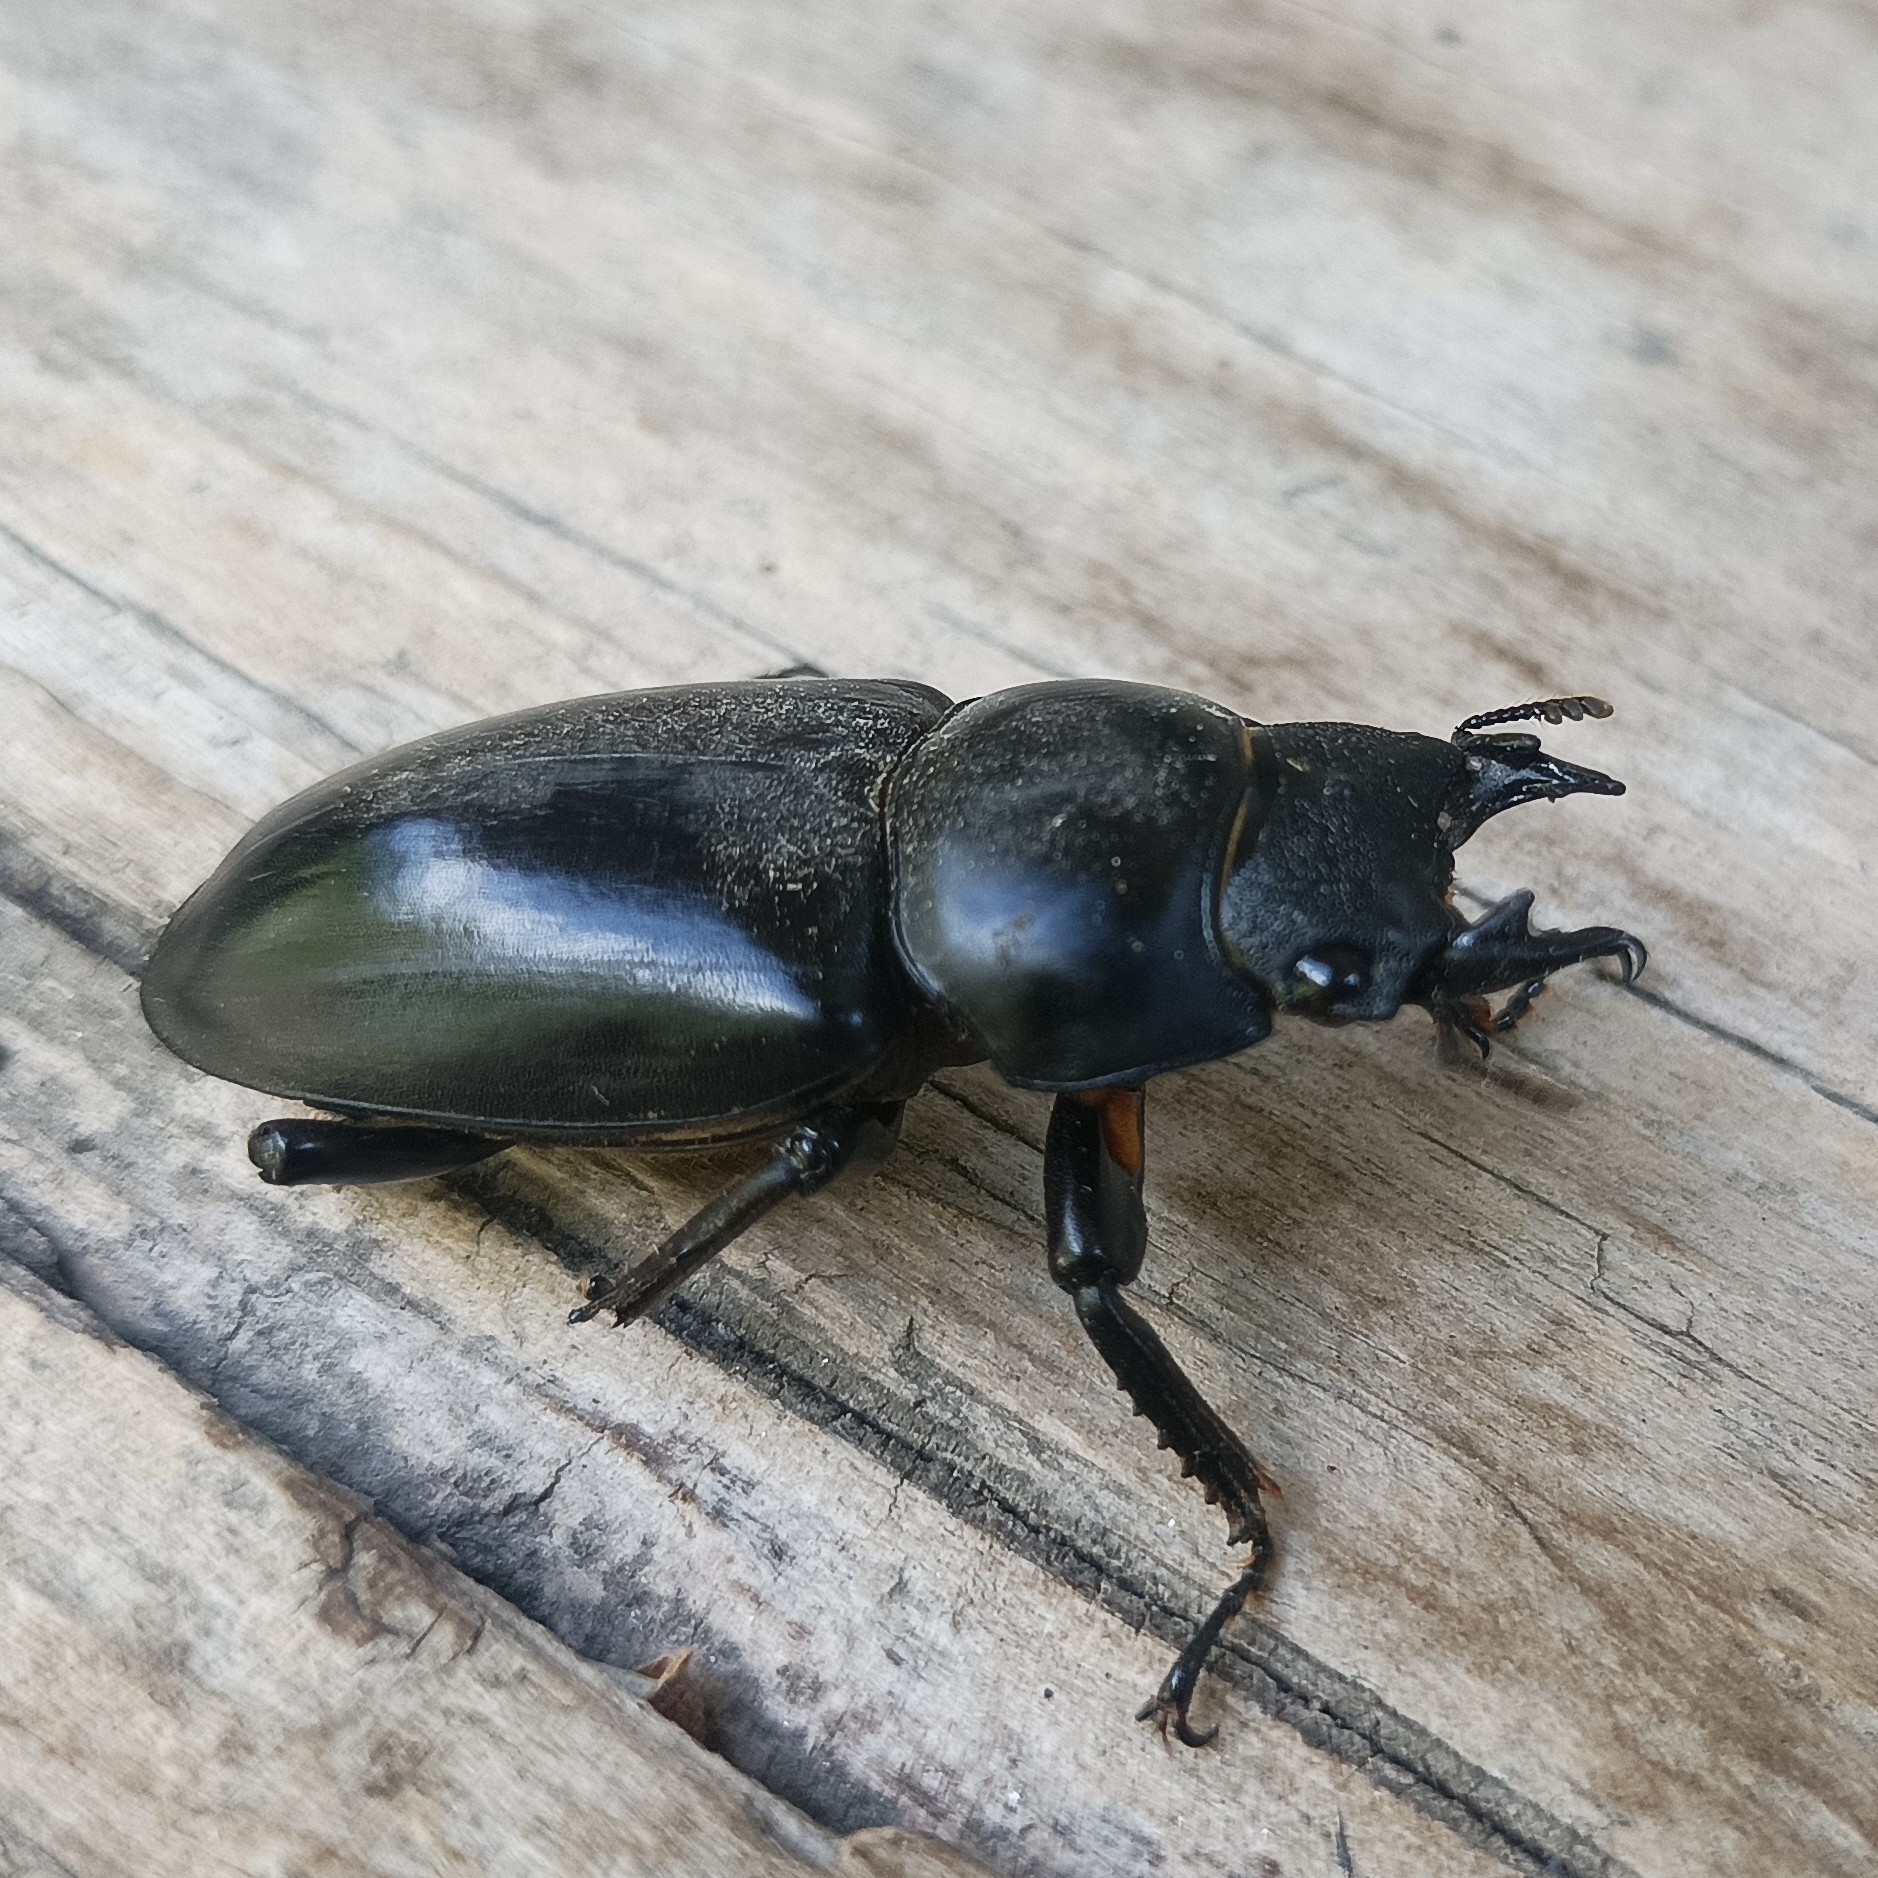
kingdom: Animalia
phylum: Arthropoda
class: Insecta
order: Coleoptera
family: Lucanidae
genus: Dorcus
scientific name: Dorcus nepalensis
